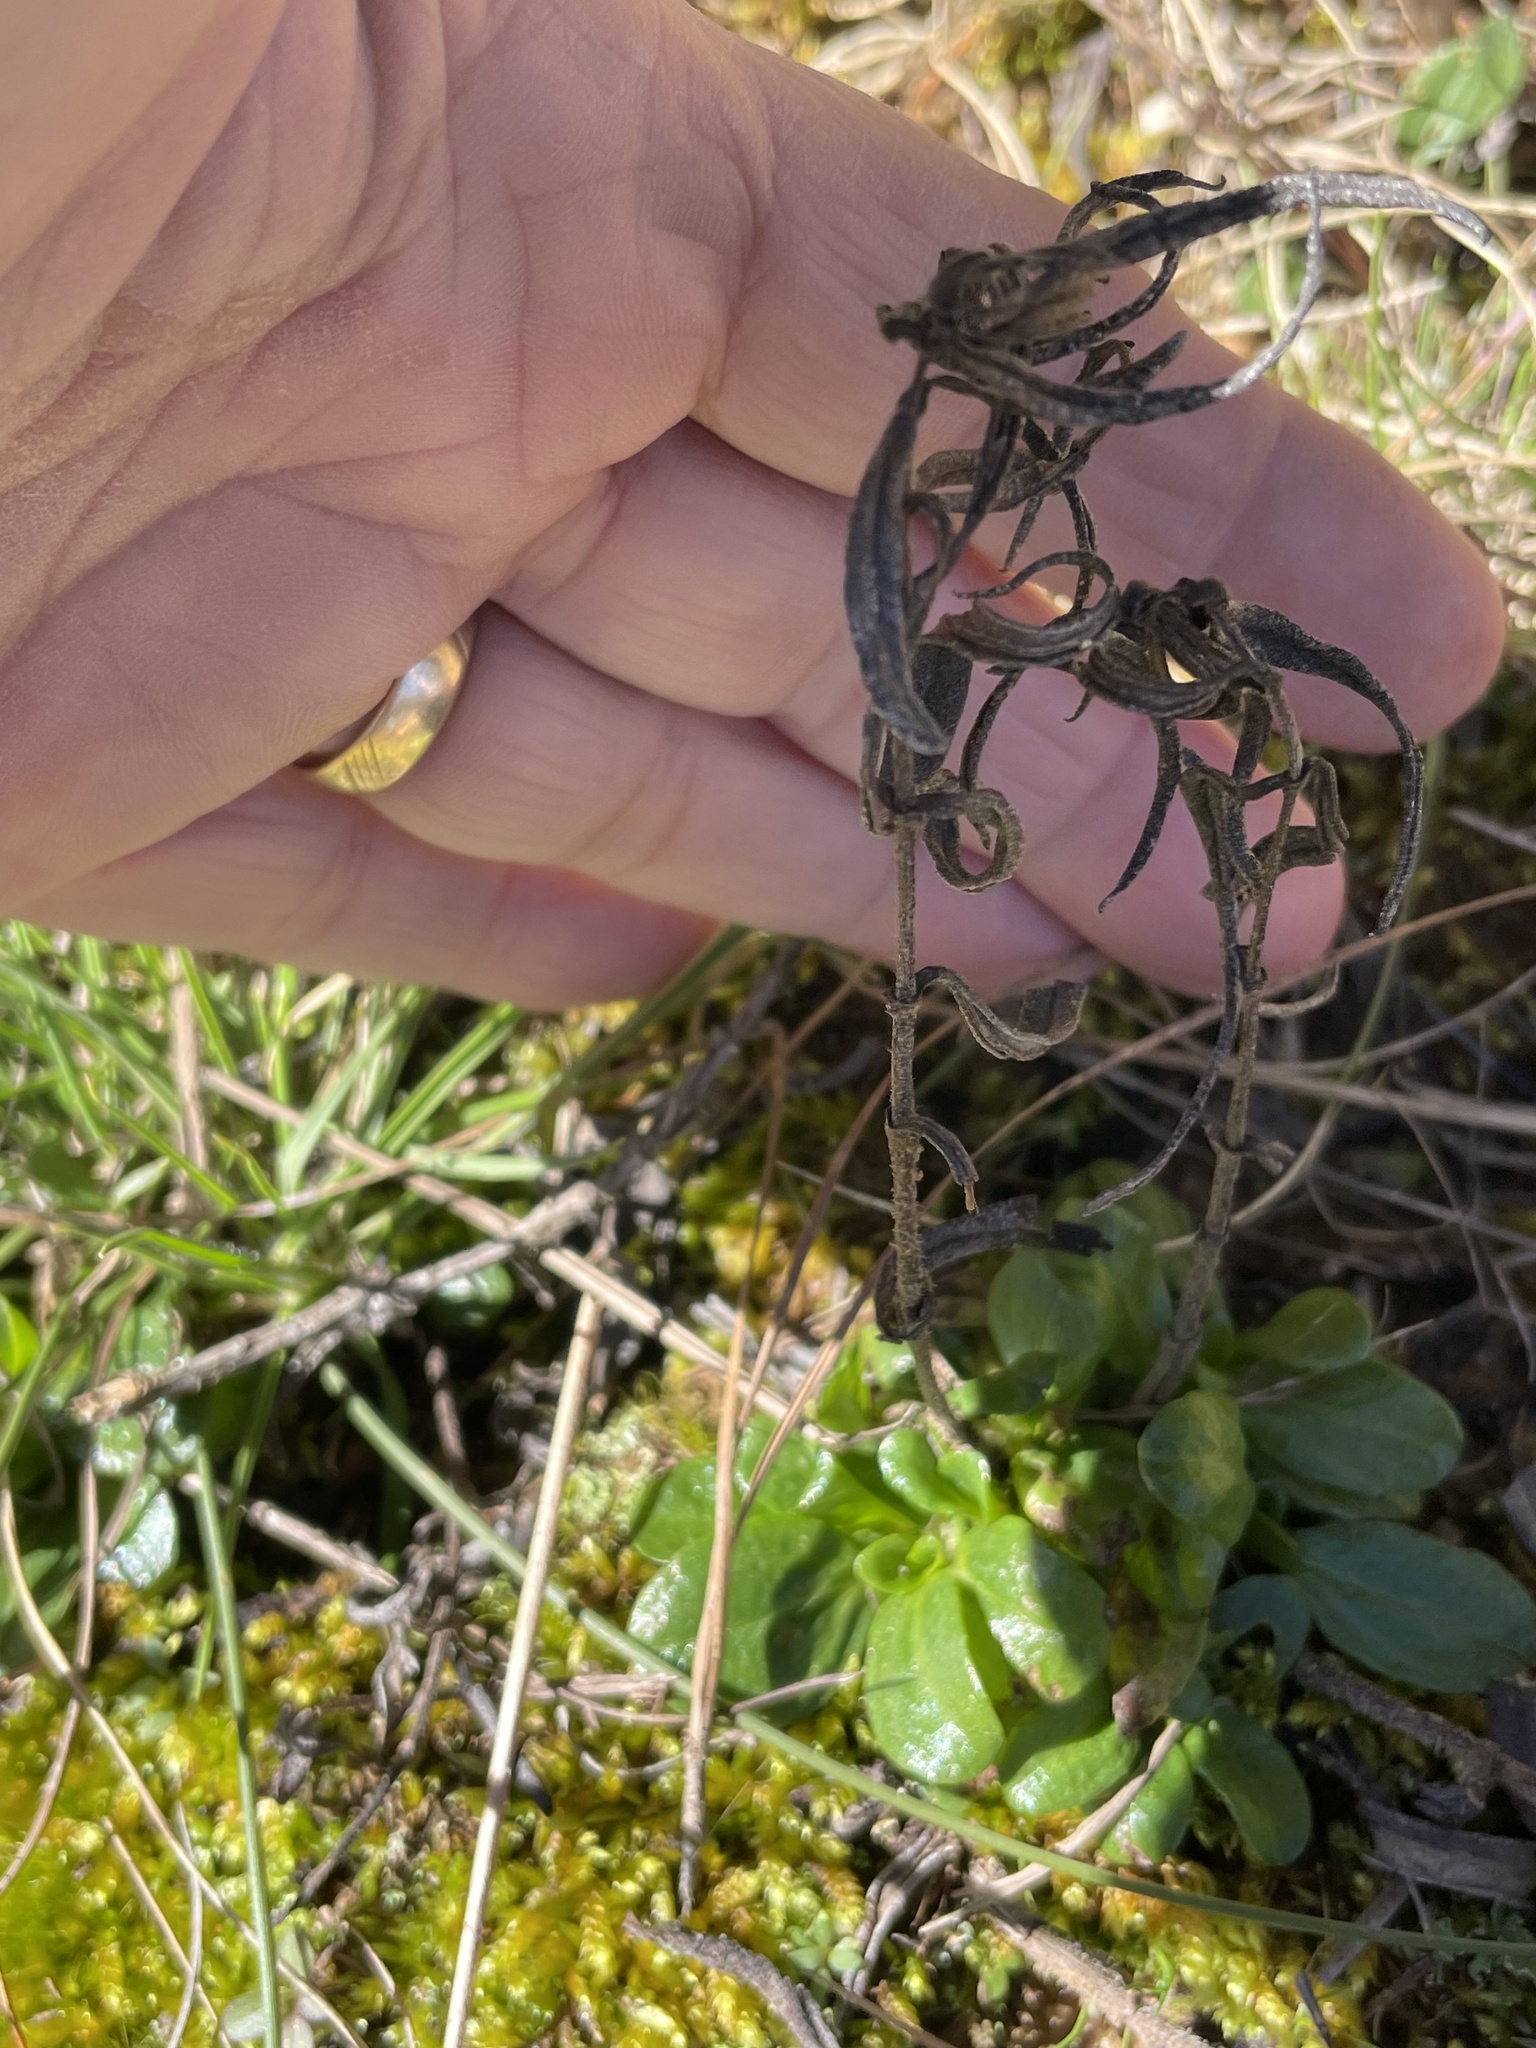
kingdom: Plantae
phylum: Tracheophyta
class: Magnoliopsida
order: Asterales
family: Asteraceae
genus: Helianthus
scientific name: Helianthus angustifolius
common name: Swamp sunflower
